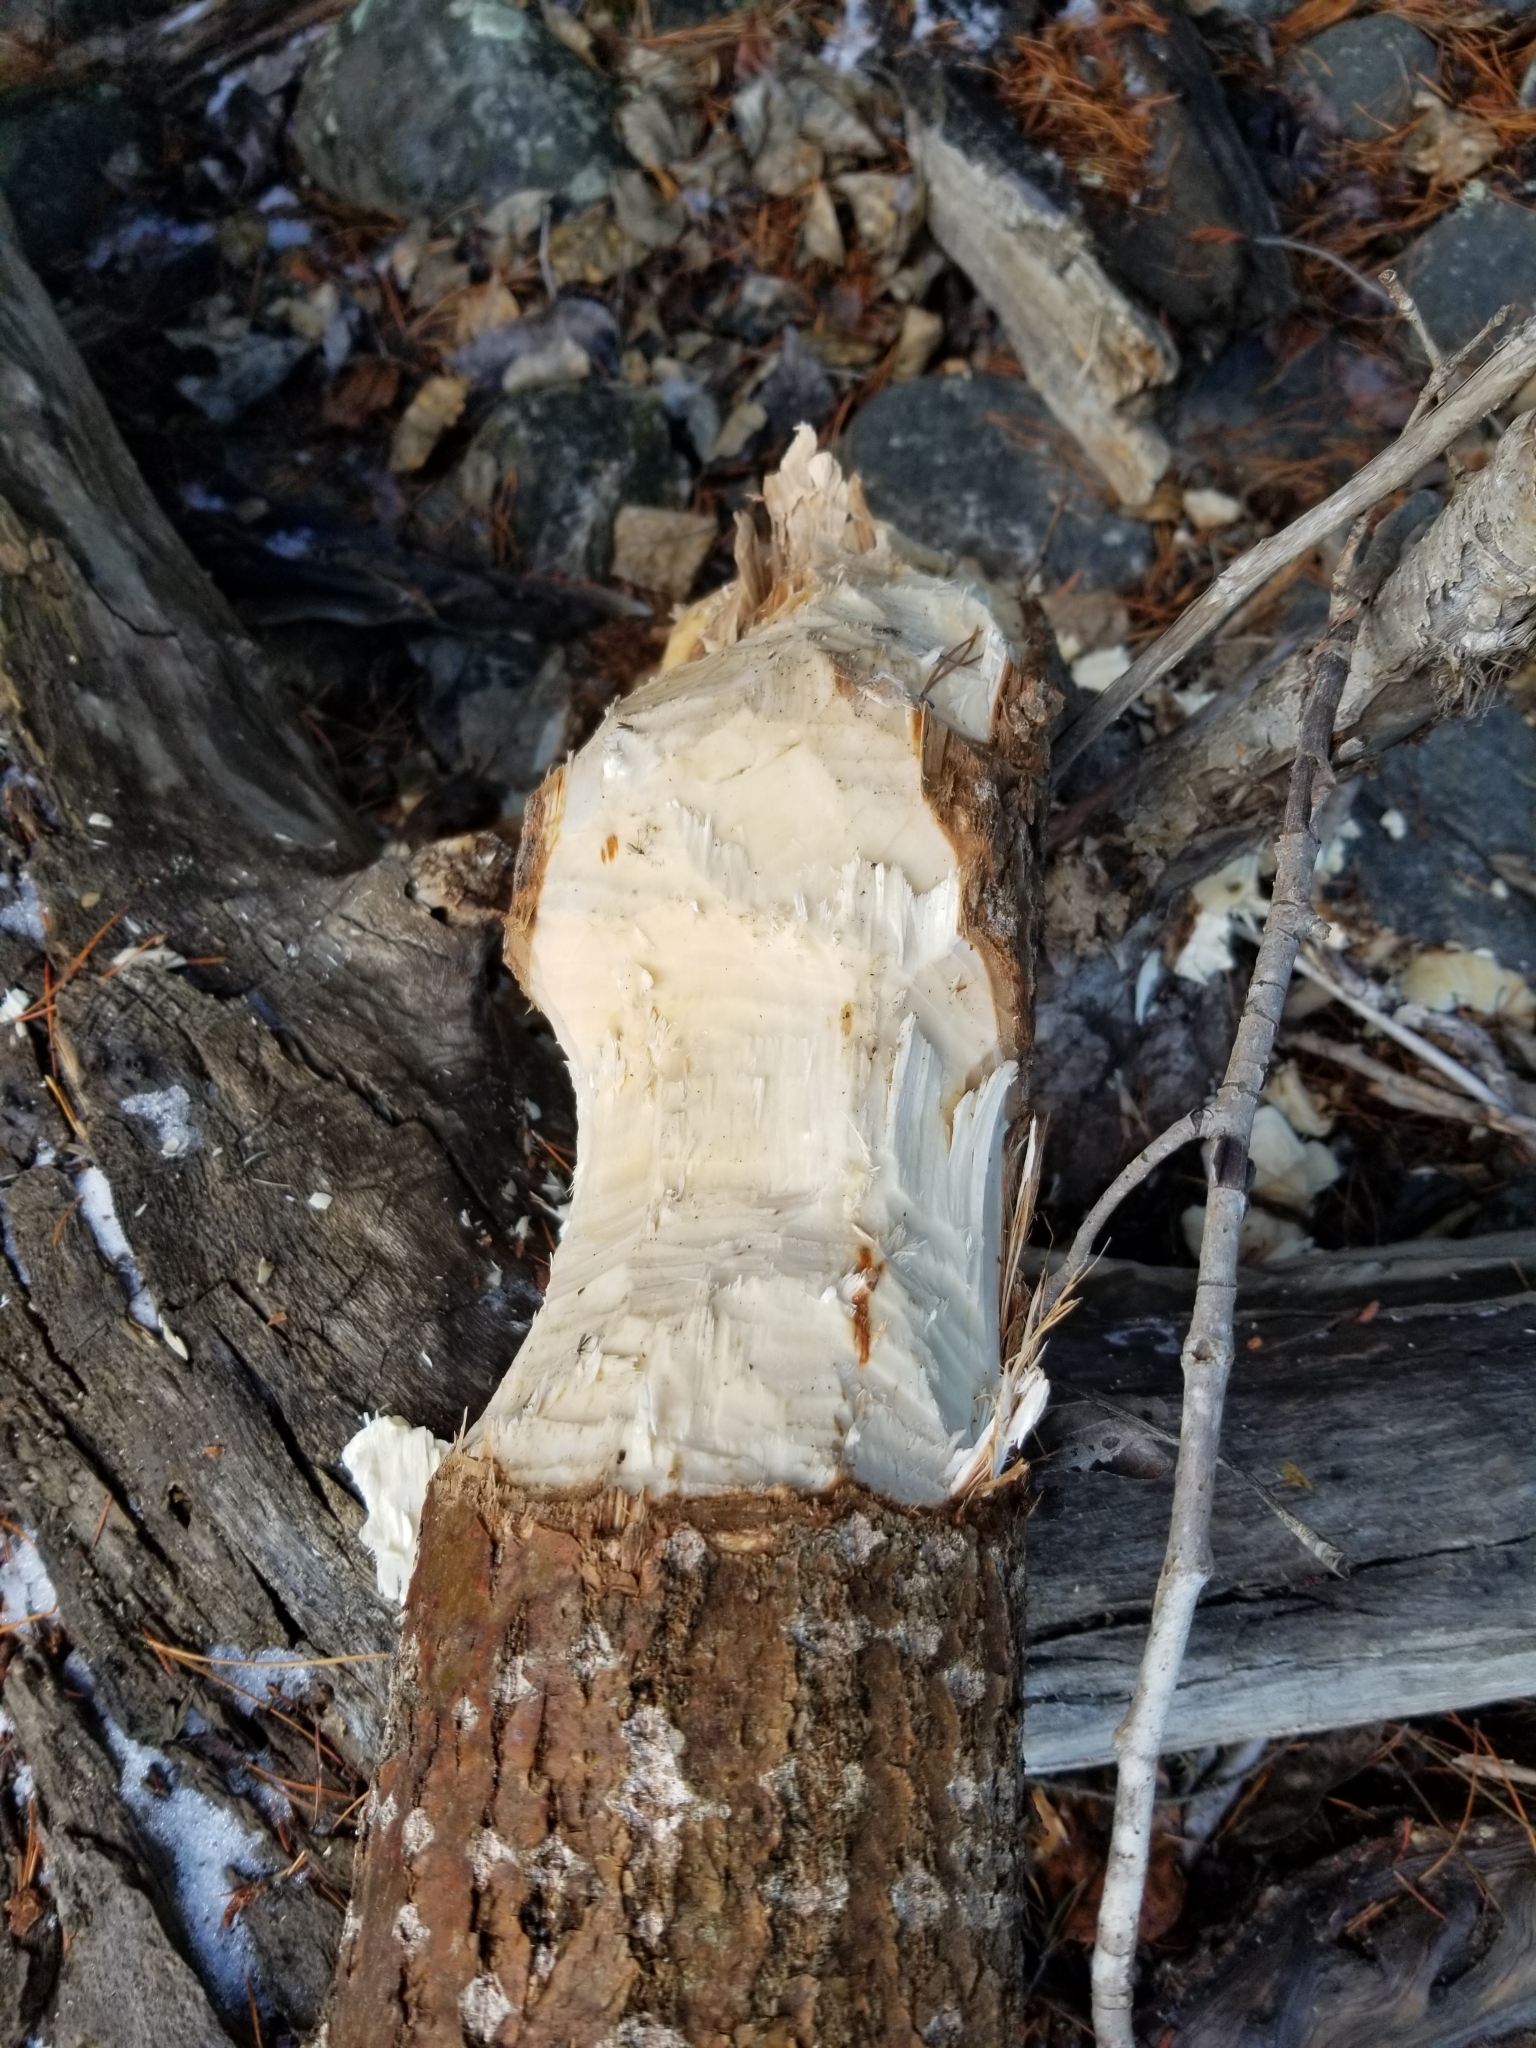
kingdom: Animalia
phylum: Chordata
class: Mammalia
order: Rodentia
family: Castoridae
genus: Castor
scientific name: Castor canadensis
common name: American beaver
